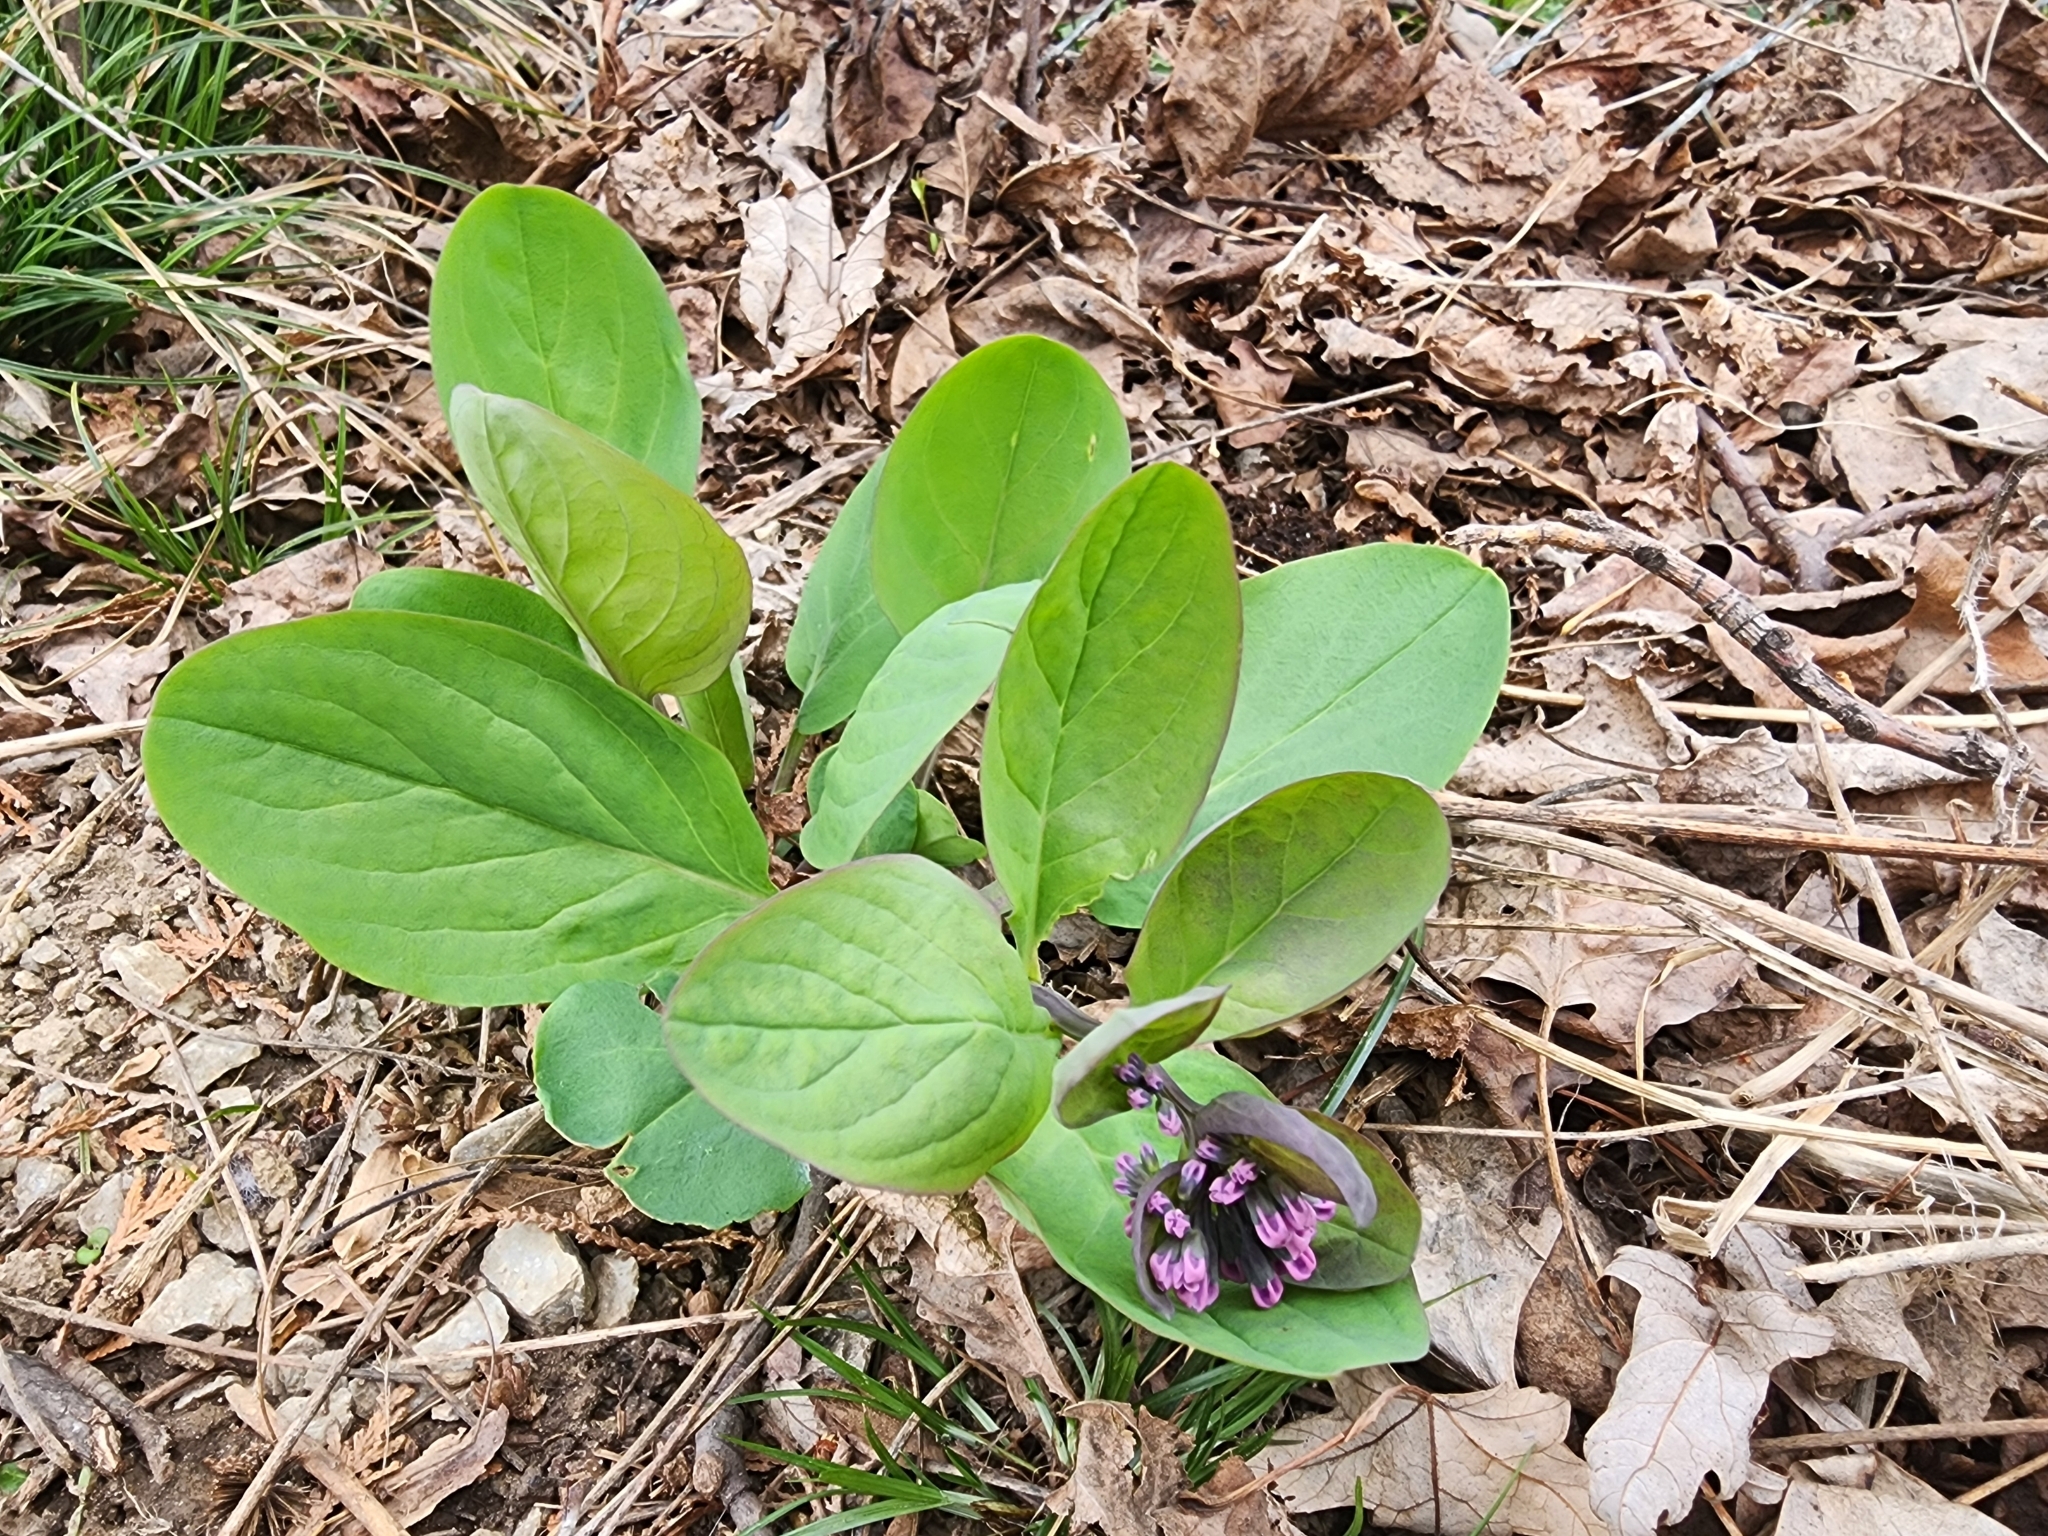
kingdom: Plantae
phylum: Tracheophyta
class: Magnoliopsida
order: Boraginales
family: Boraginaceae
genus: Mertensia
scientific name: Mertensia virginica
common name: Virginia bluebells
